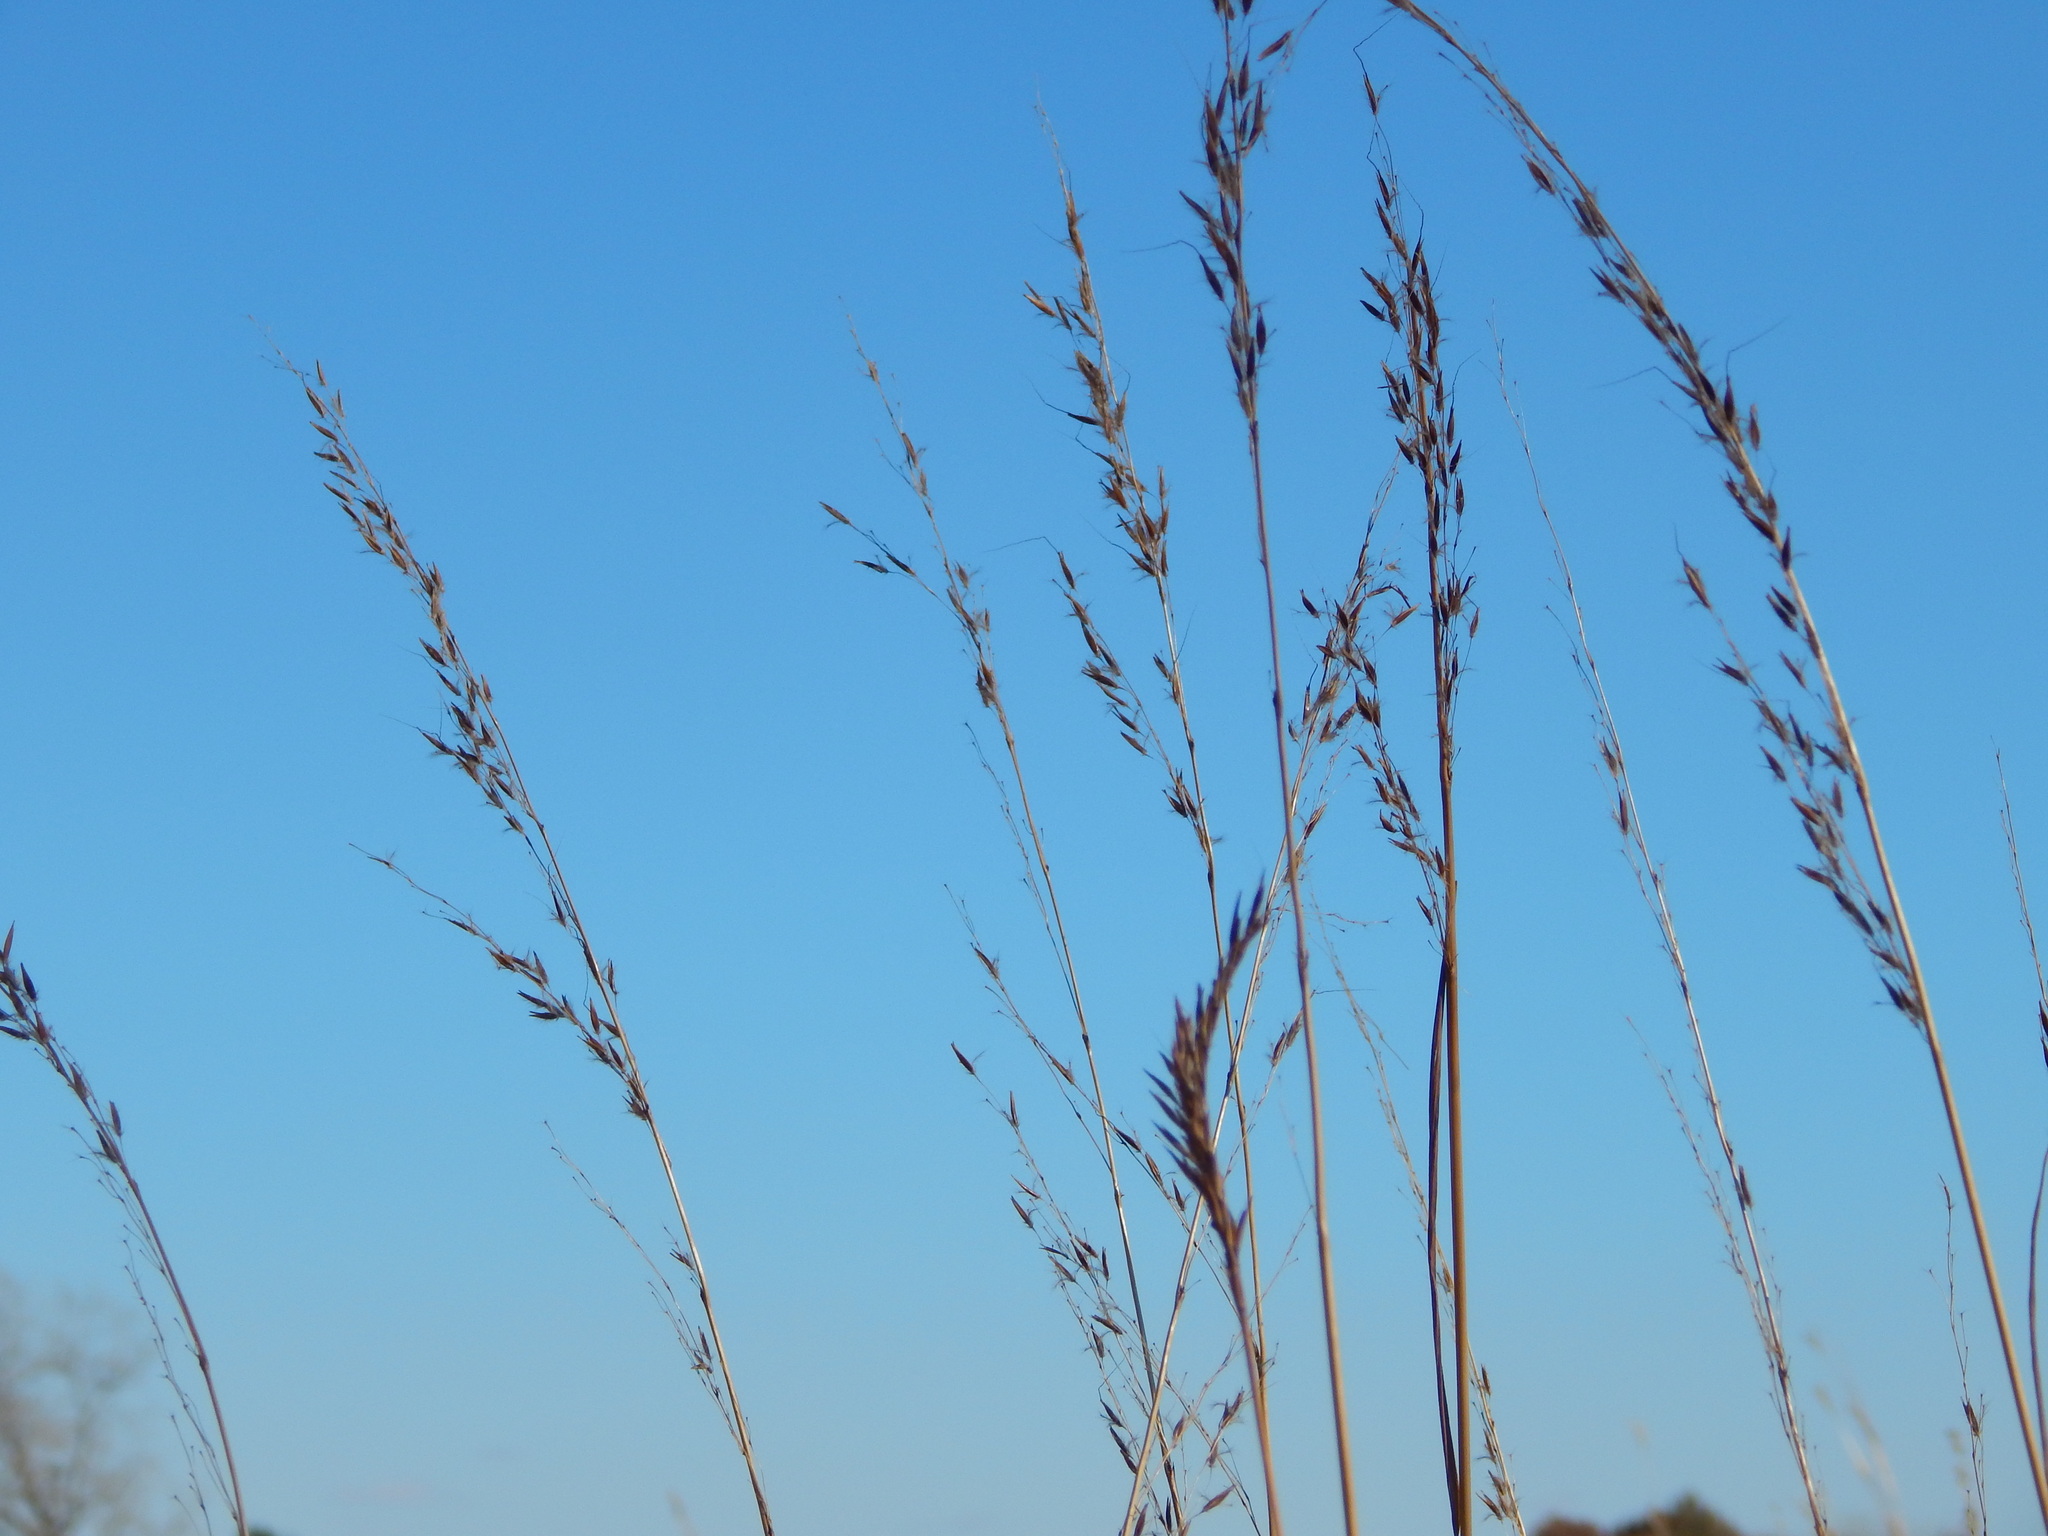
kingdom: Plantae
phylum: Tracheophyta
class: Liliopsida
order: Poales
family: Poaceae
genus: Sorghastrum
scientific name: Sorghastrum nutans
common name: Indian grass
